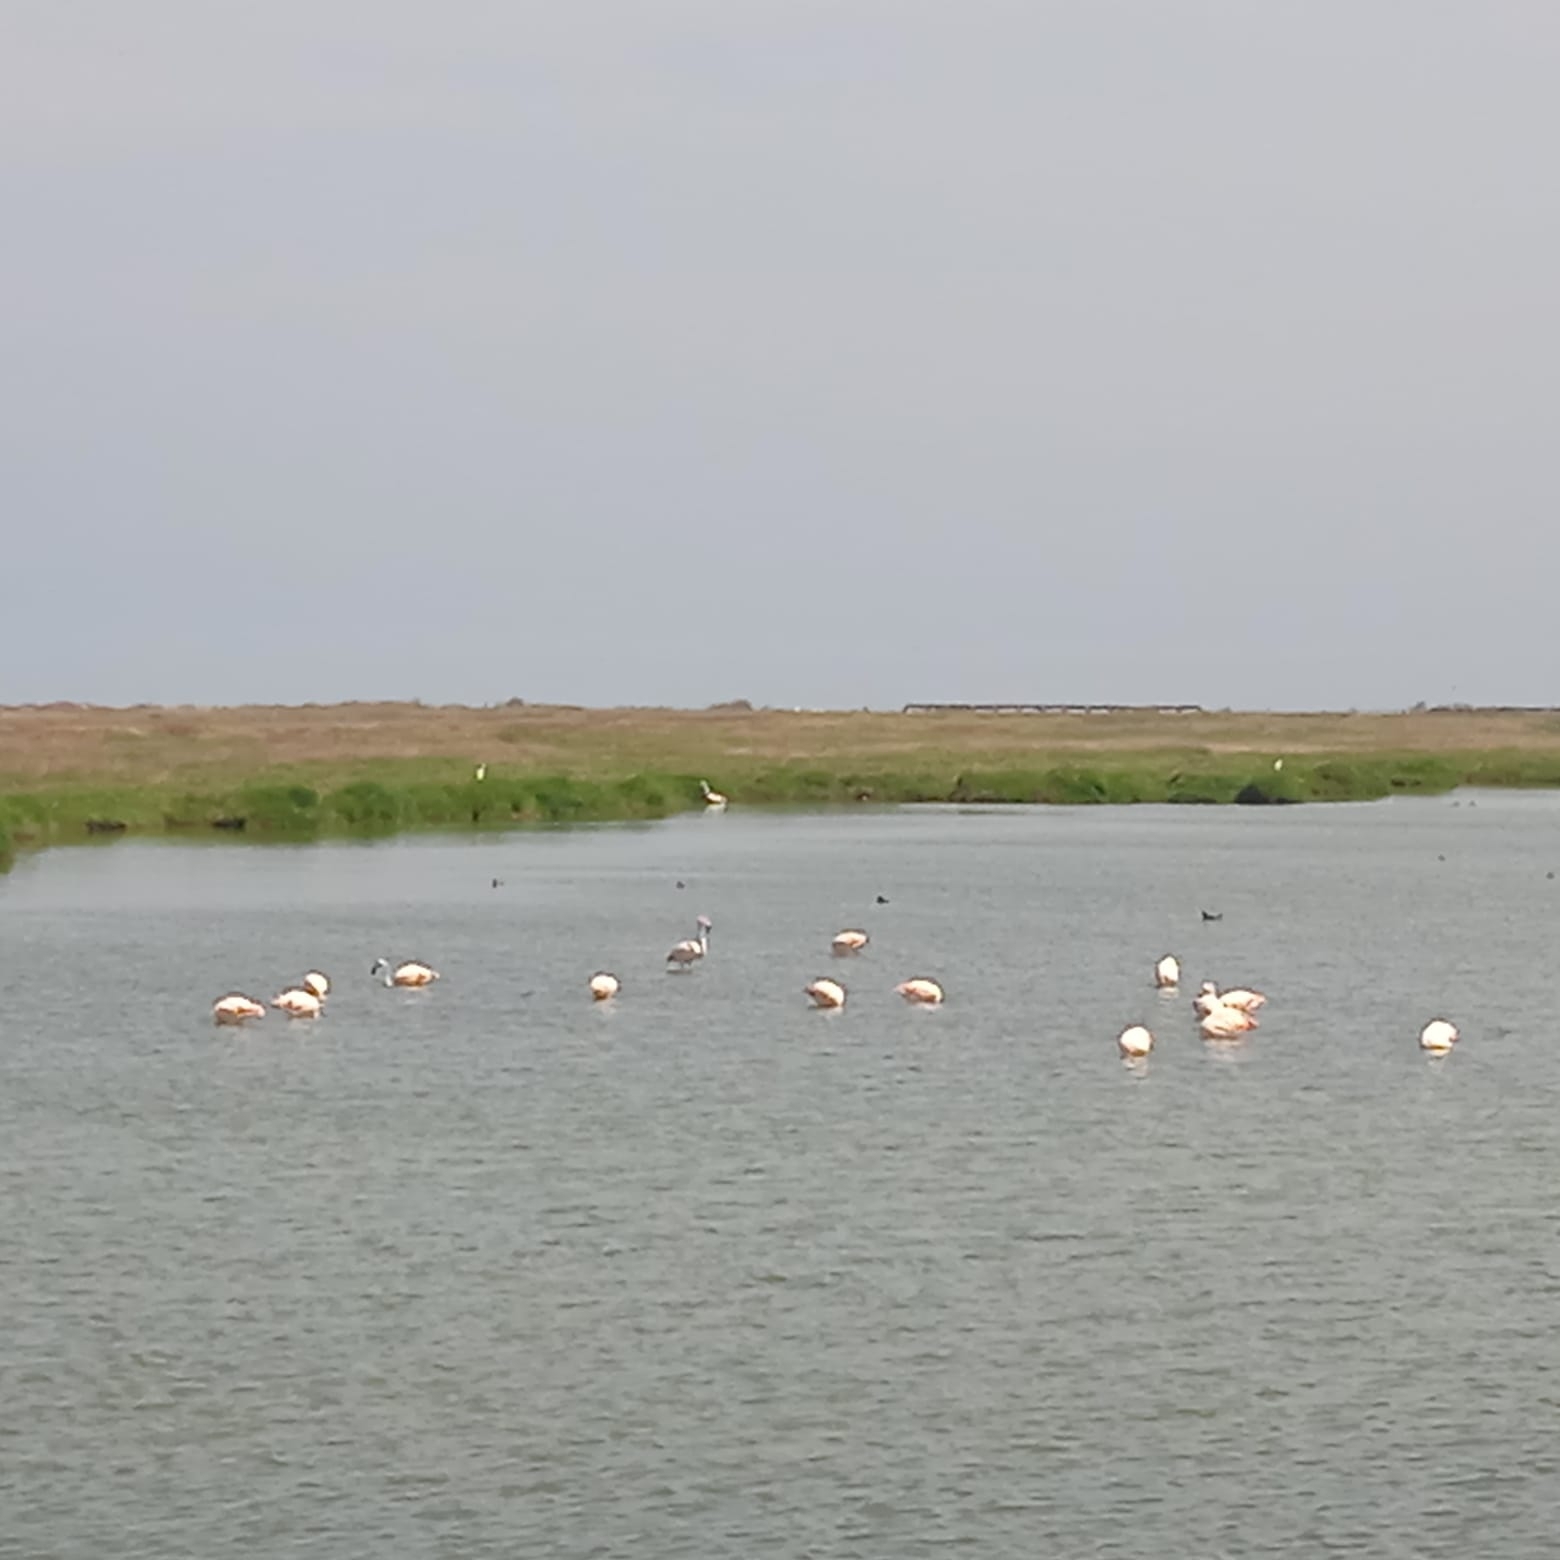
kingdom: Animalia
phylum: Chordata
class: Aves
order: Phoenicopteriformes
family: Phoenicopteridae
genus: Phoenicopterus
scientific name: Phoenicopterus chilensis
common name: Chilean flamingo
